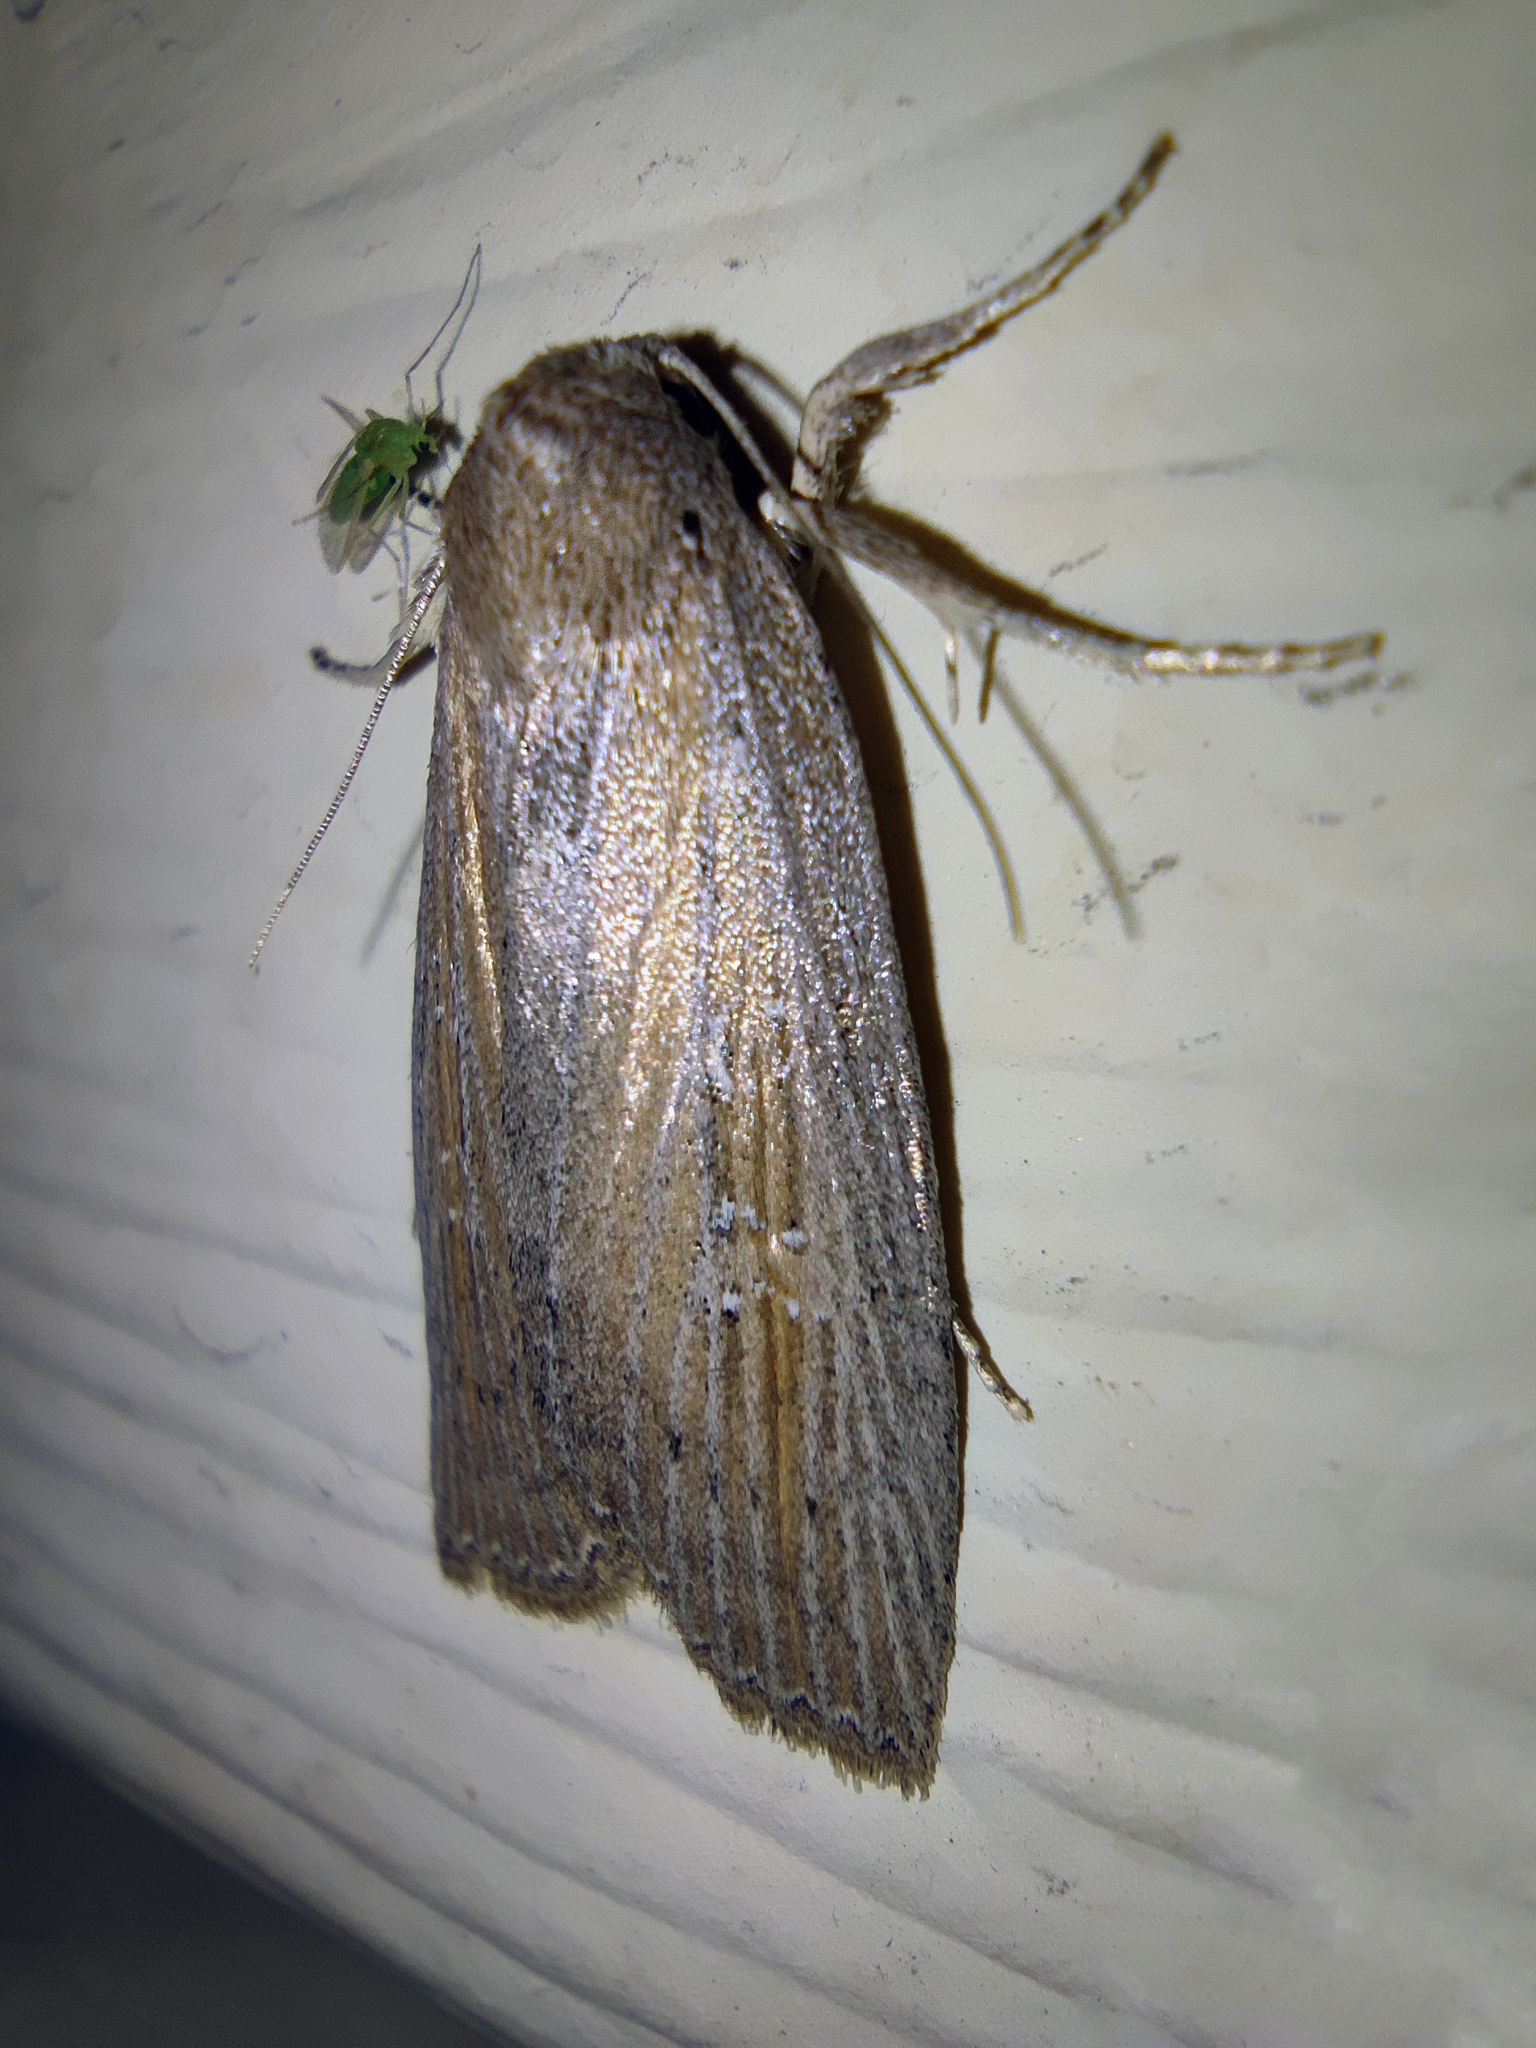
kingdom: Animalia
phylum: Arthropoda
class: Insecta
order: Lepidoptera
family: Noctuidae
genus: Chilodes
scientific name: Chilodes maritima
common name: Silky wainscot
